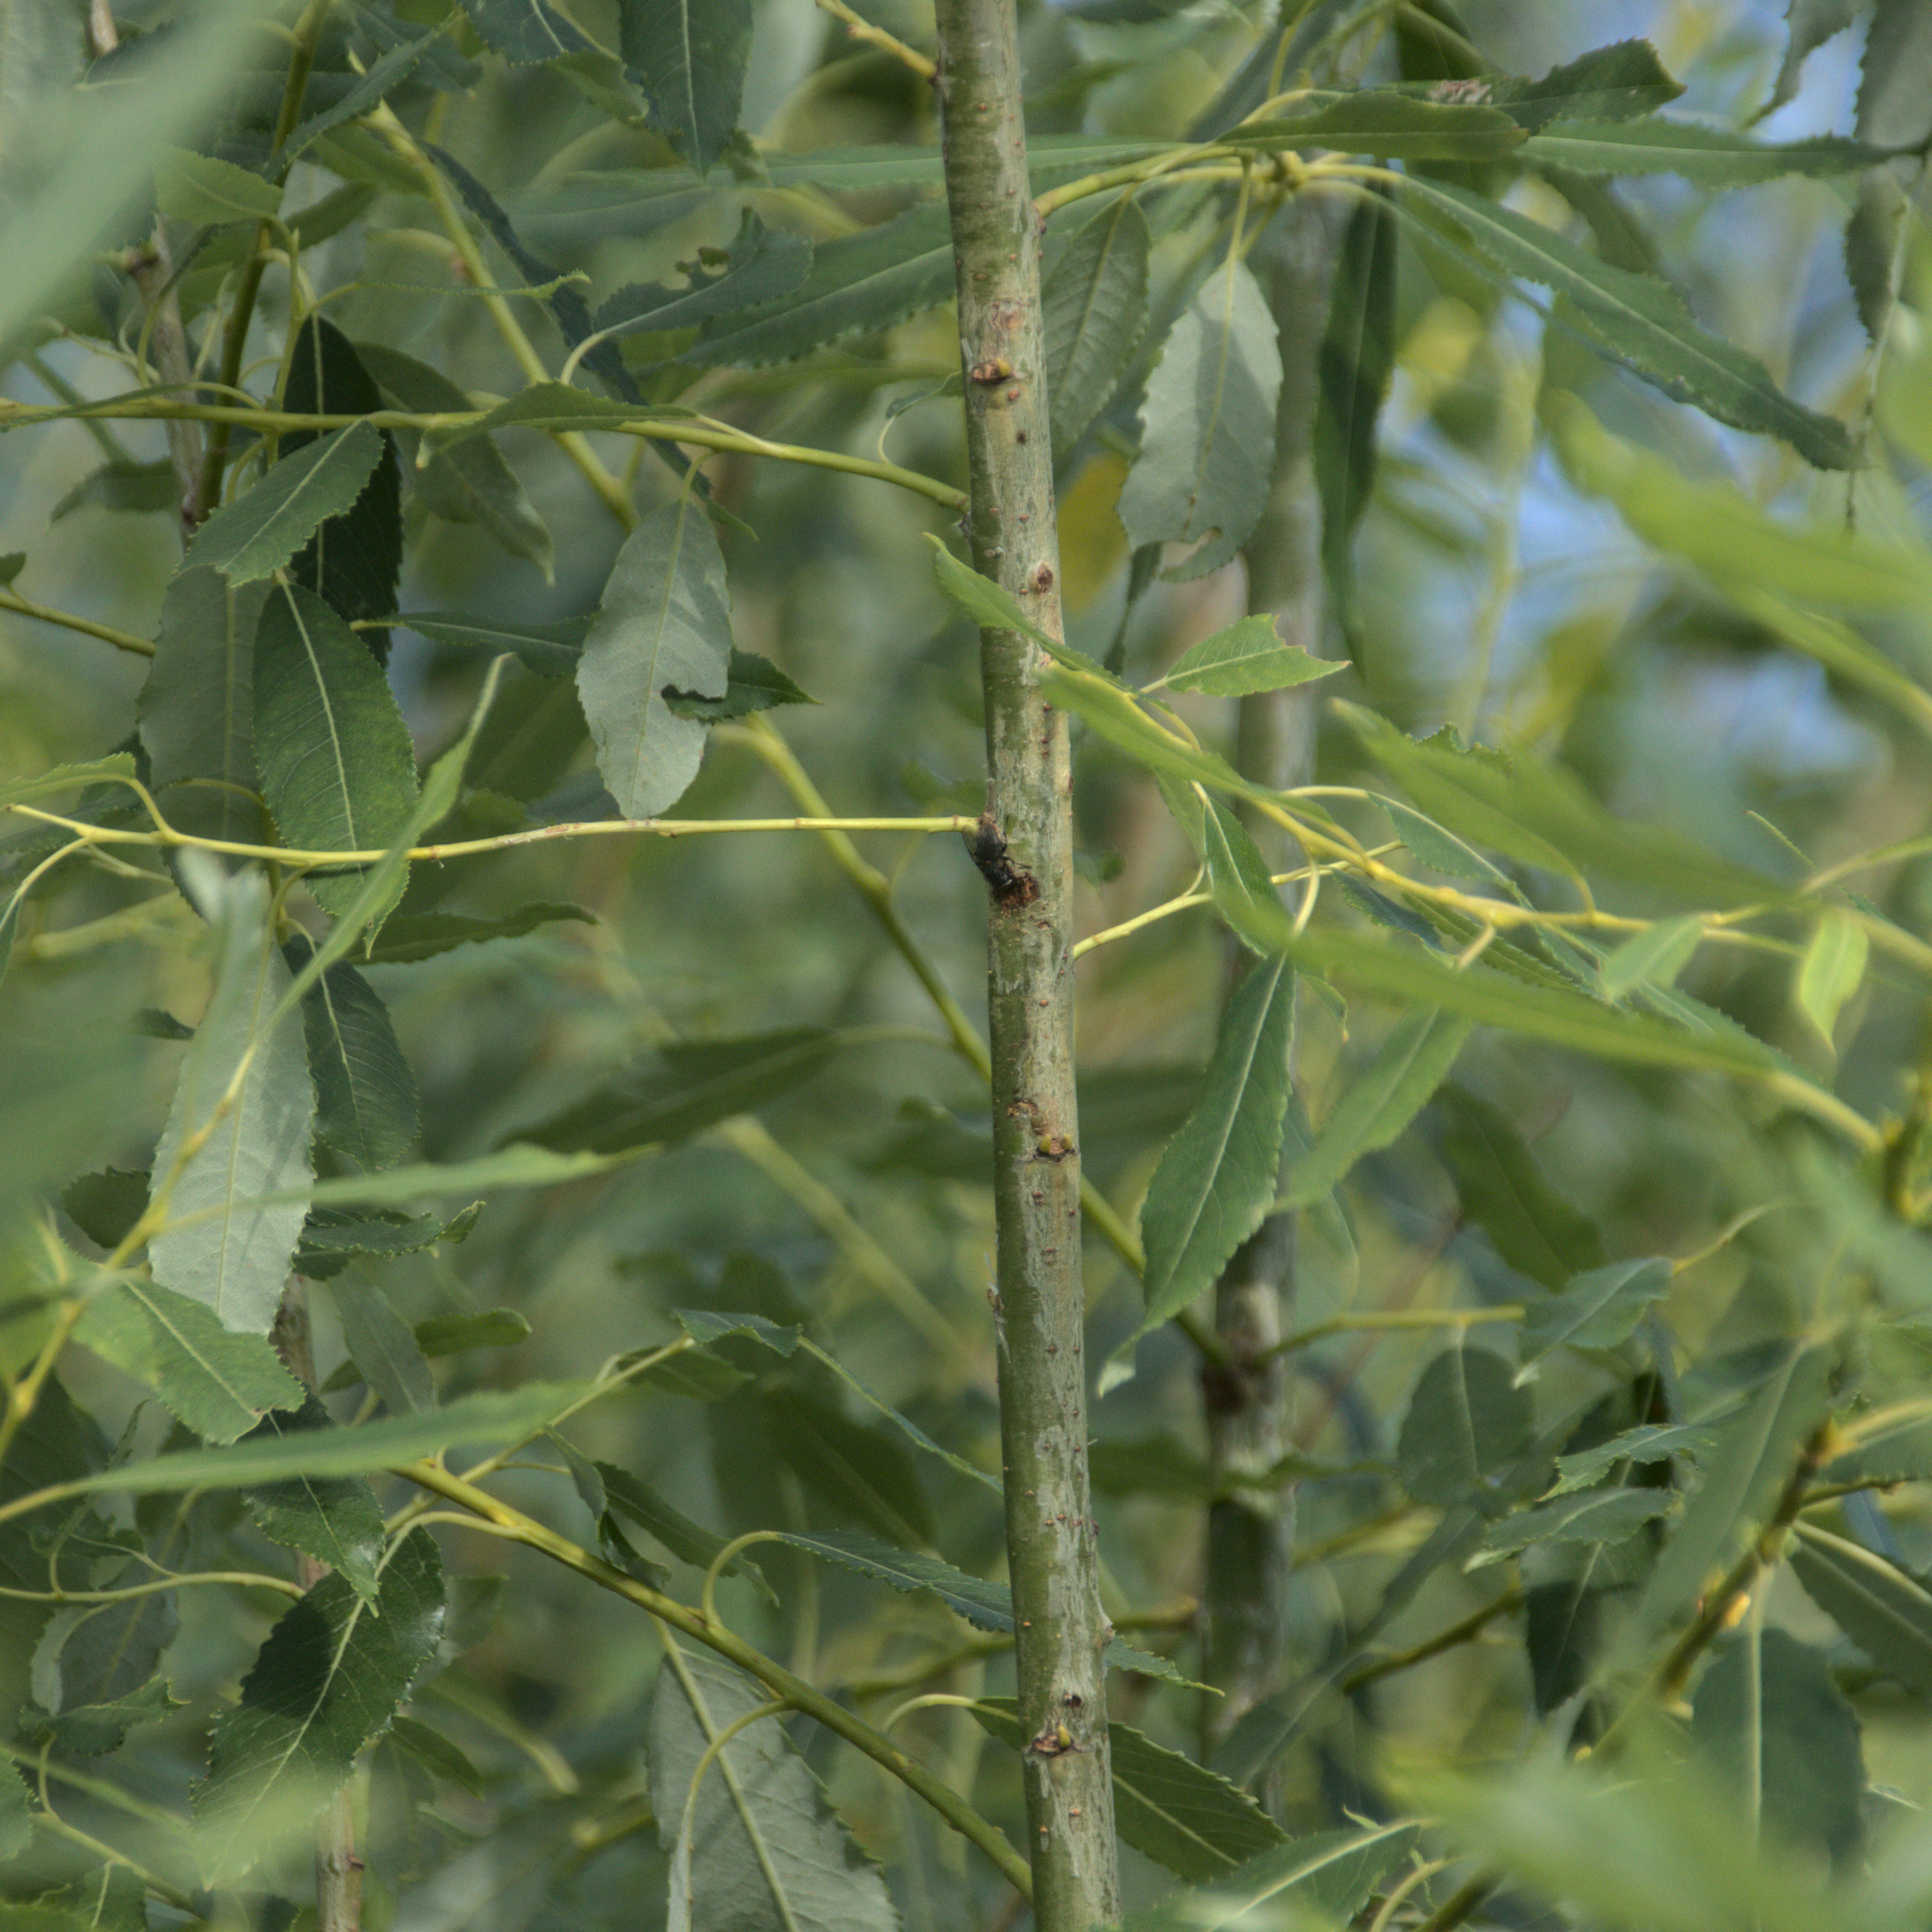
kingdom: Plantae
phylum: Tracheophyta
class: Magnoliopsida
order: Malpighiales
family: Salicaceae
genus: Salix
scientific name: Salix triandra
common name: Almond willow
